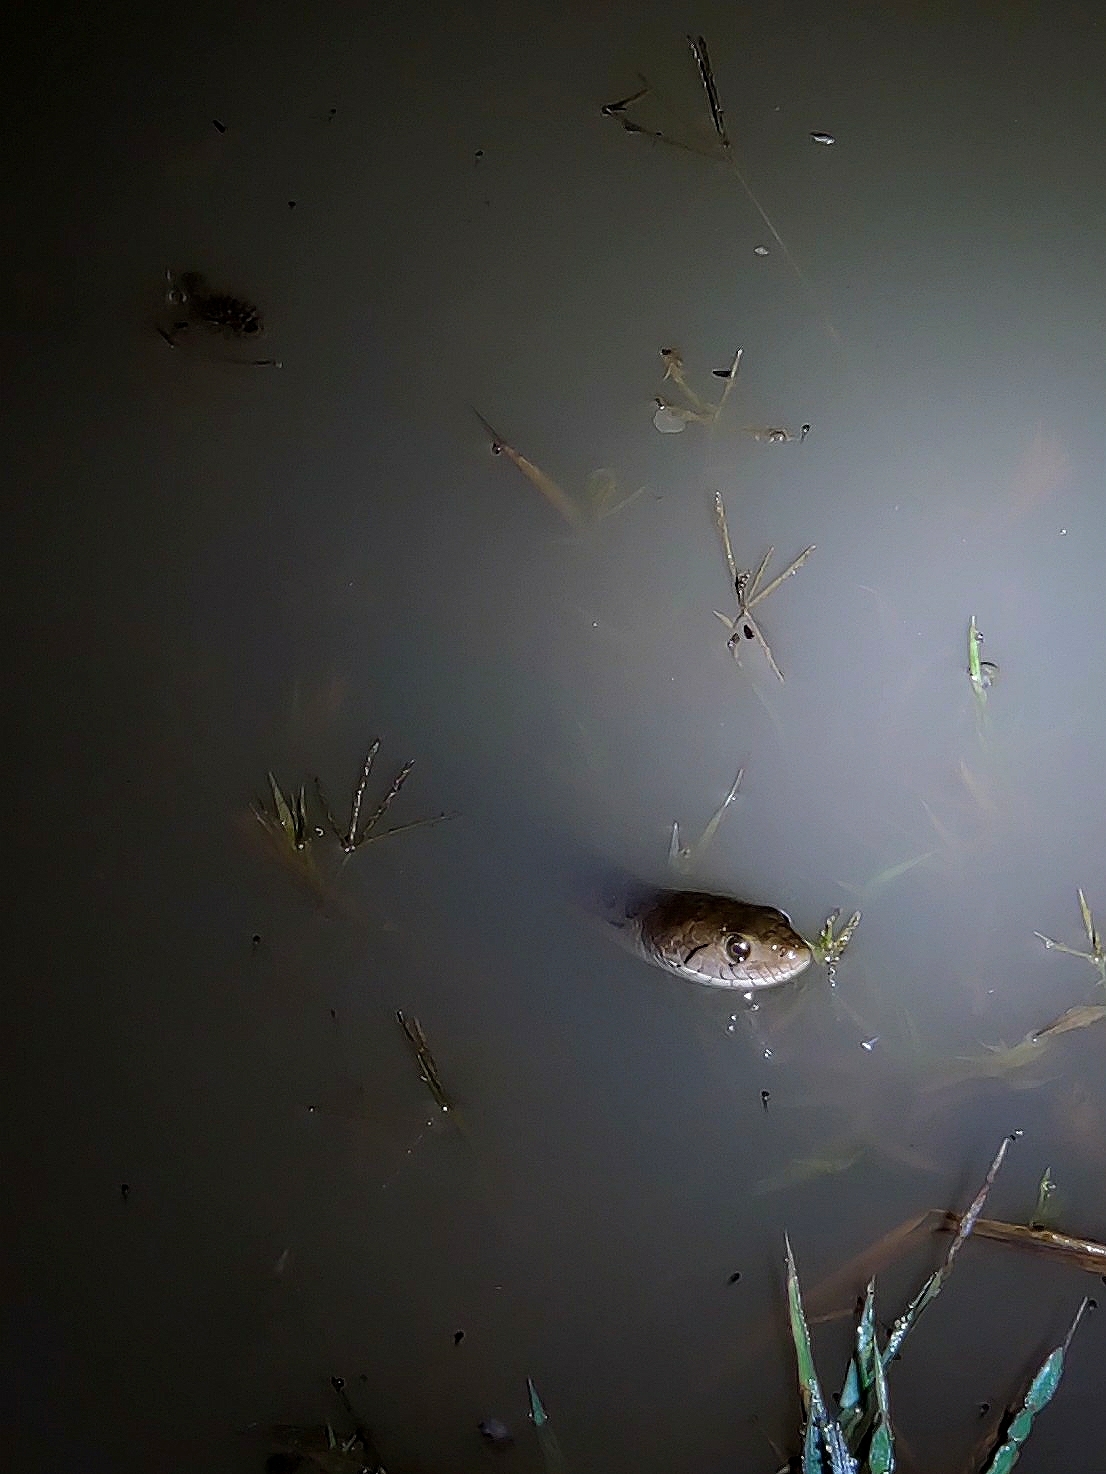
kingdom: Animalia
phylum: Chordata
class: Squamata
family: Colubridae
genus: Fowlea
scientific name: Fowlea piscator
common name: Asiatic water snake
